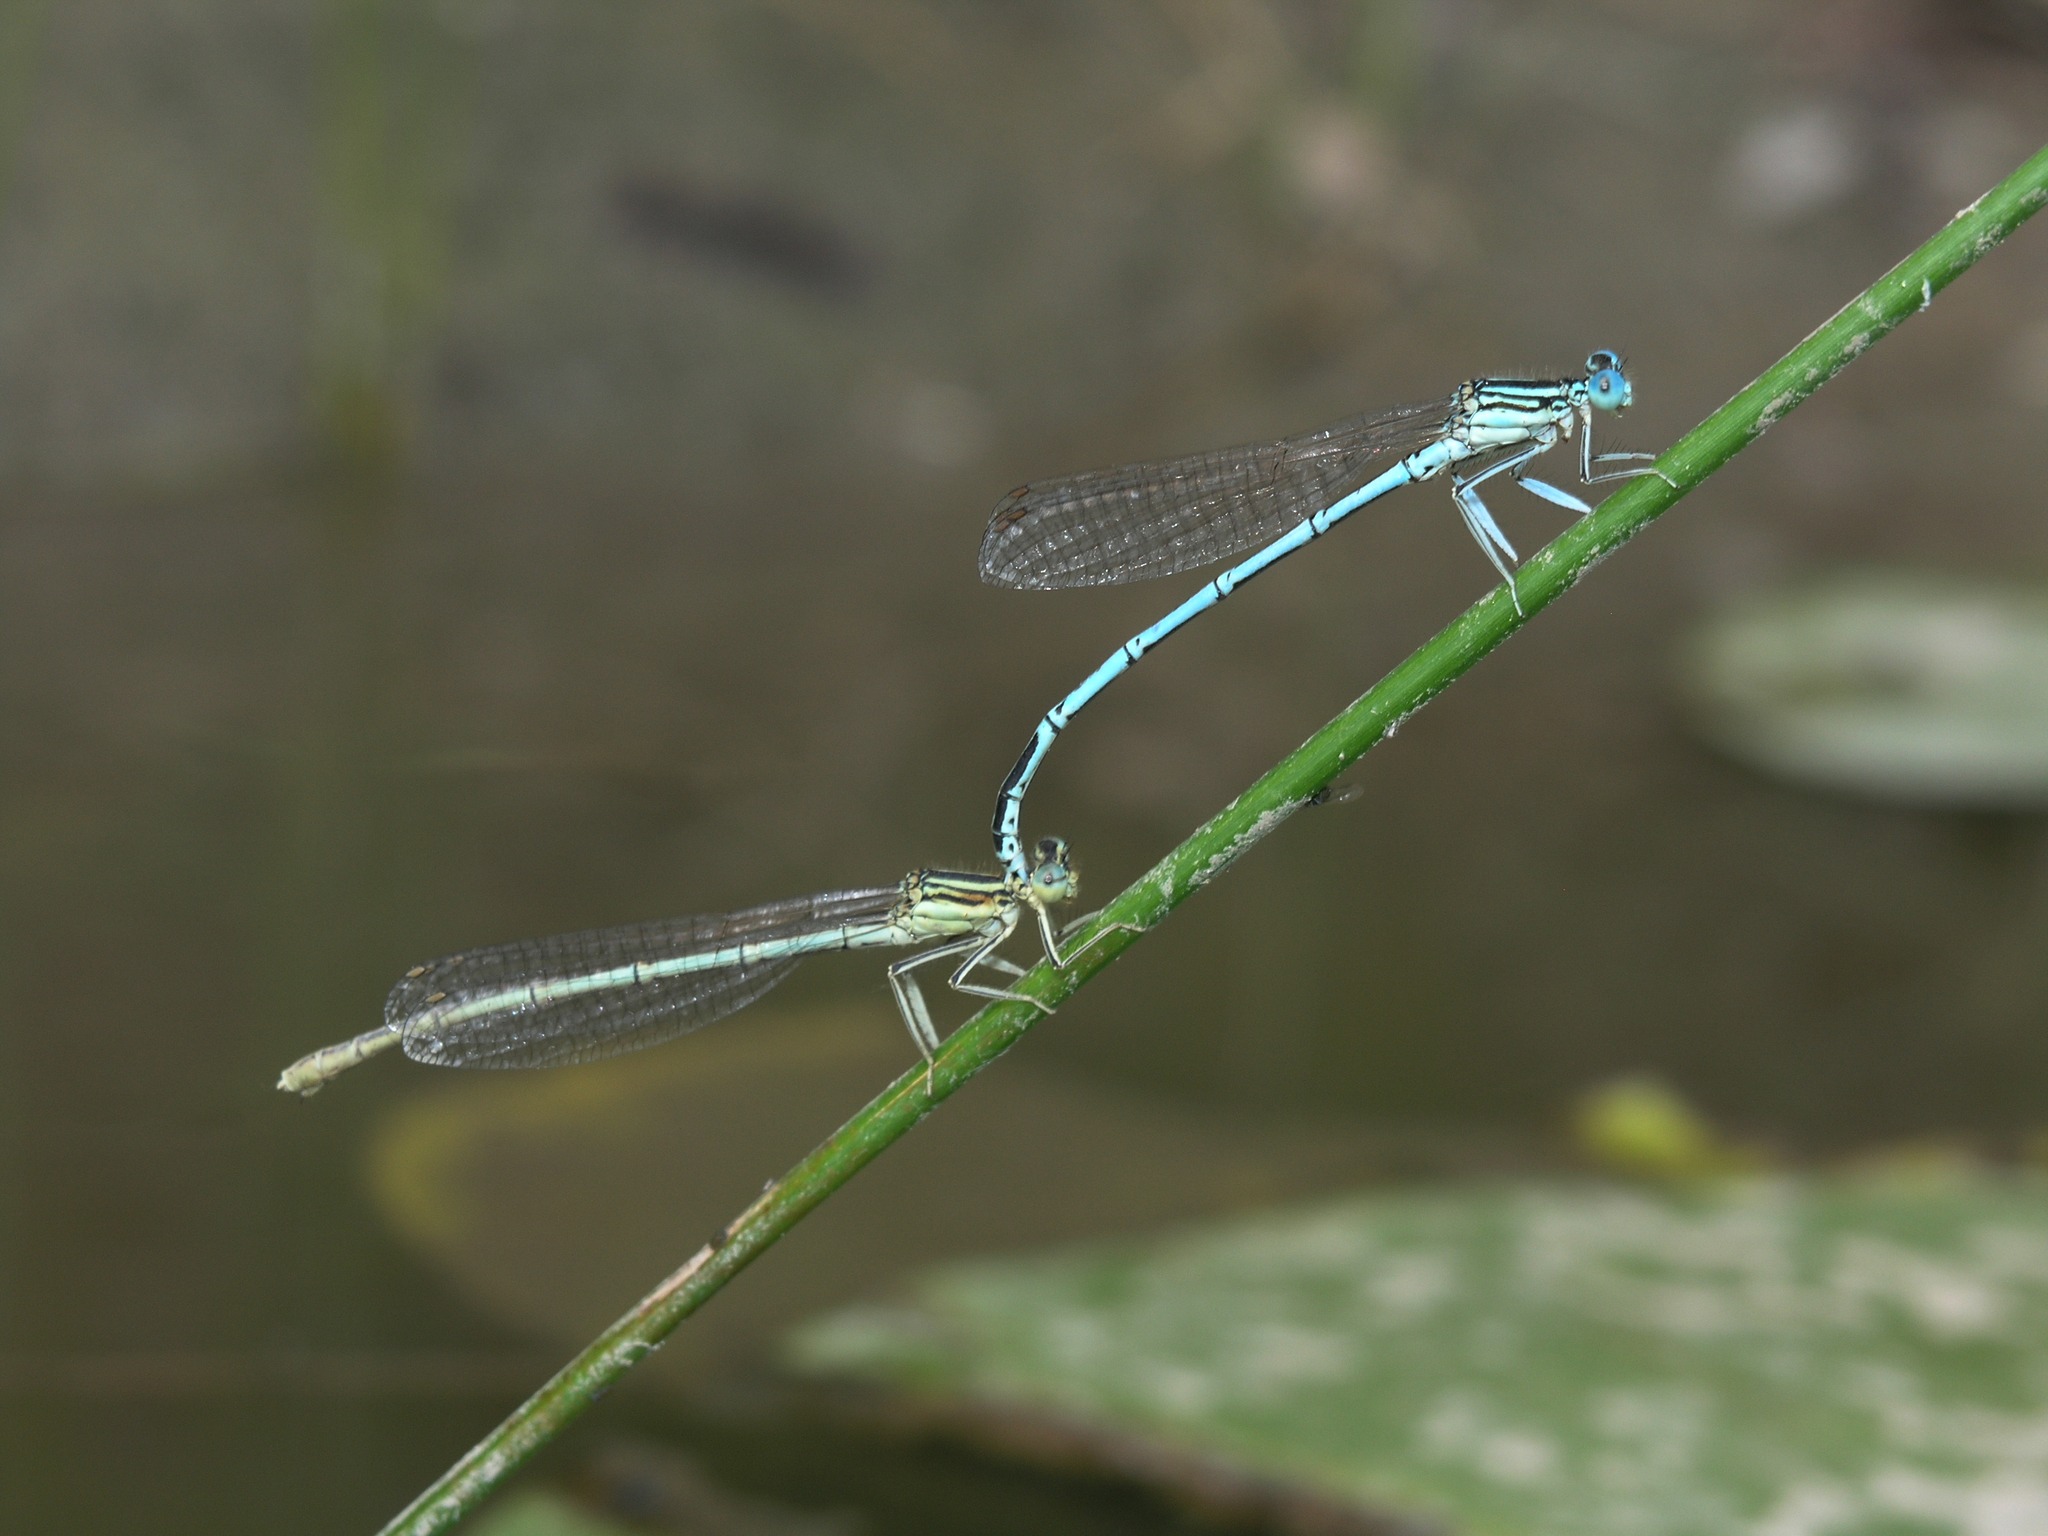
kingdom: Animalia
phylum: Arthropoda
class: Insecta
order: Odonata
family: Platycnemididae
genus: Platycnemis
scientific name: Platycnemis pennipes
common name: White-legged damselfly
